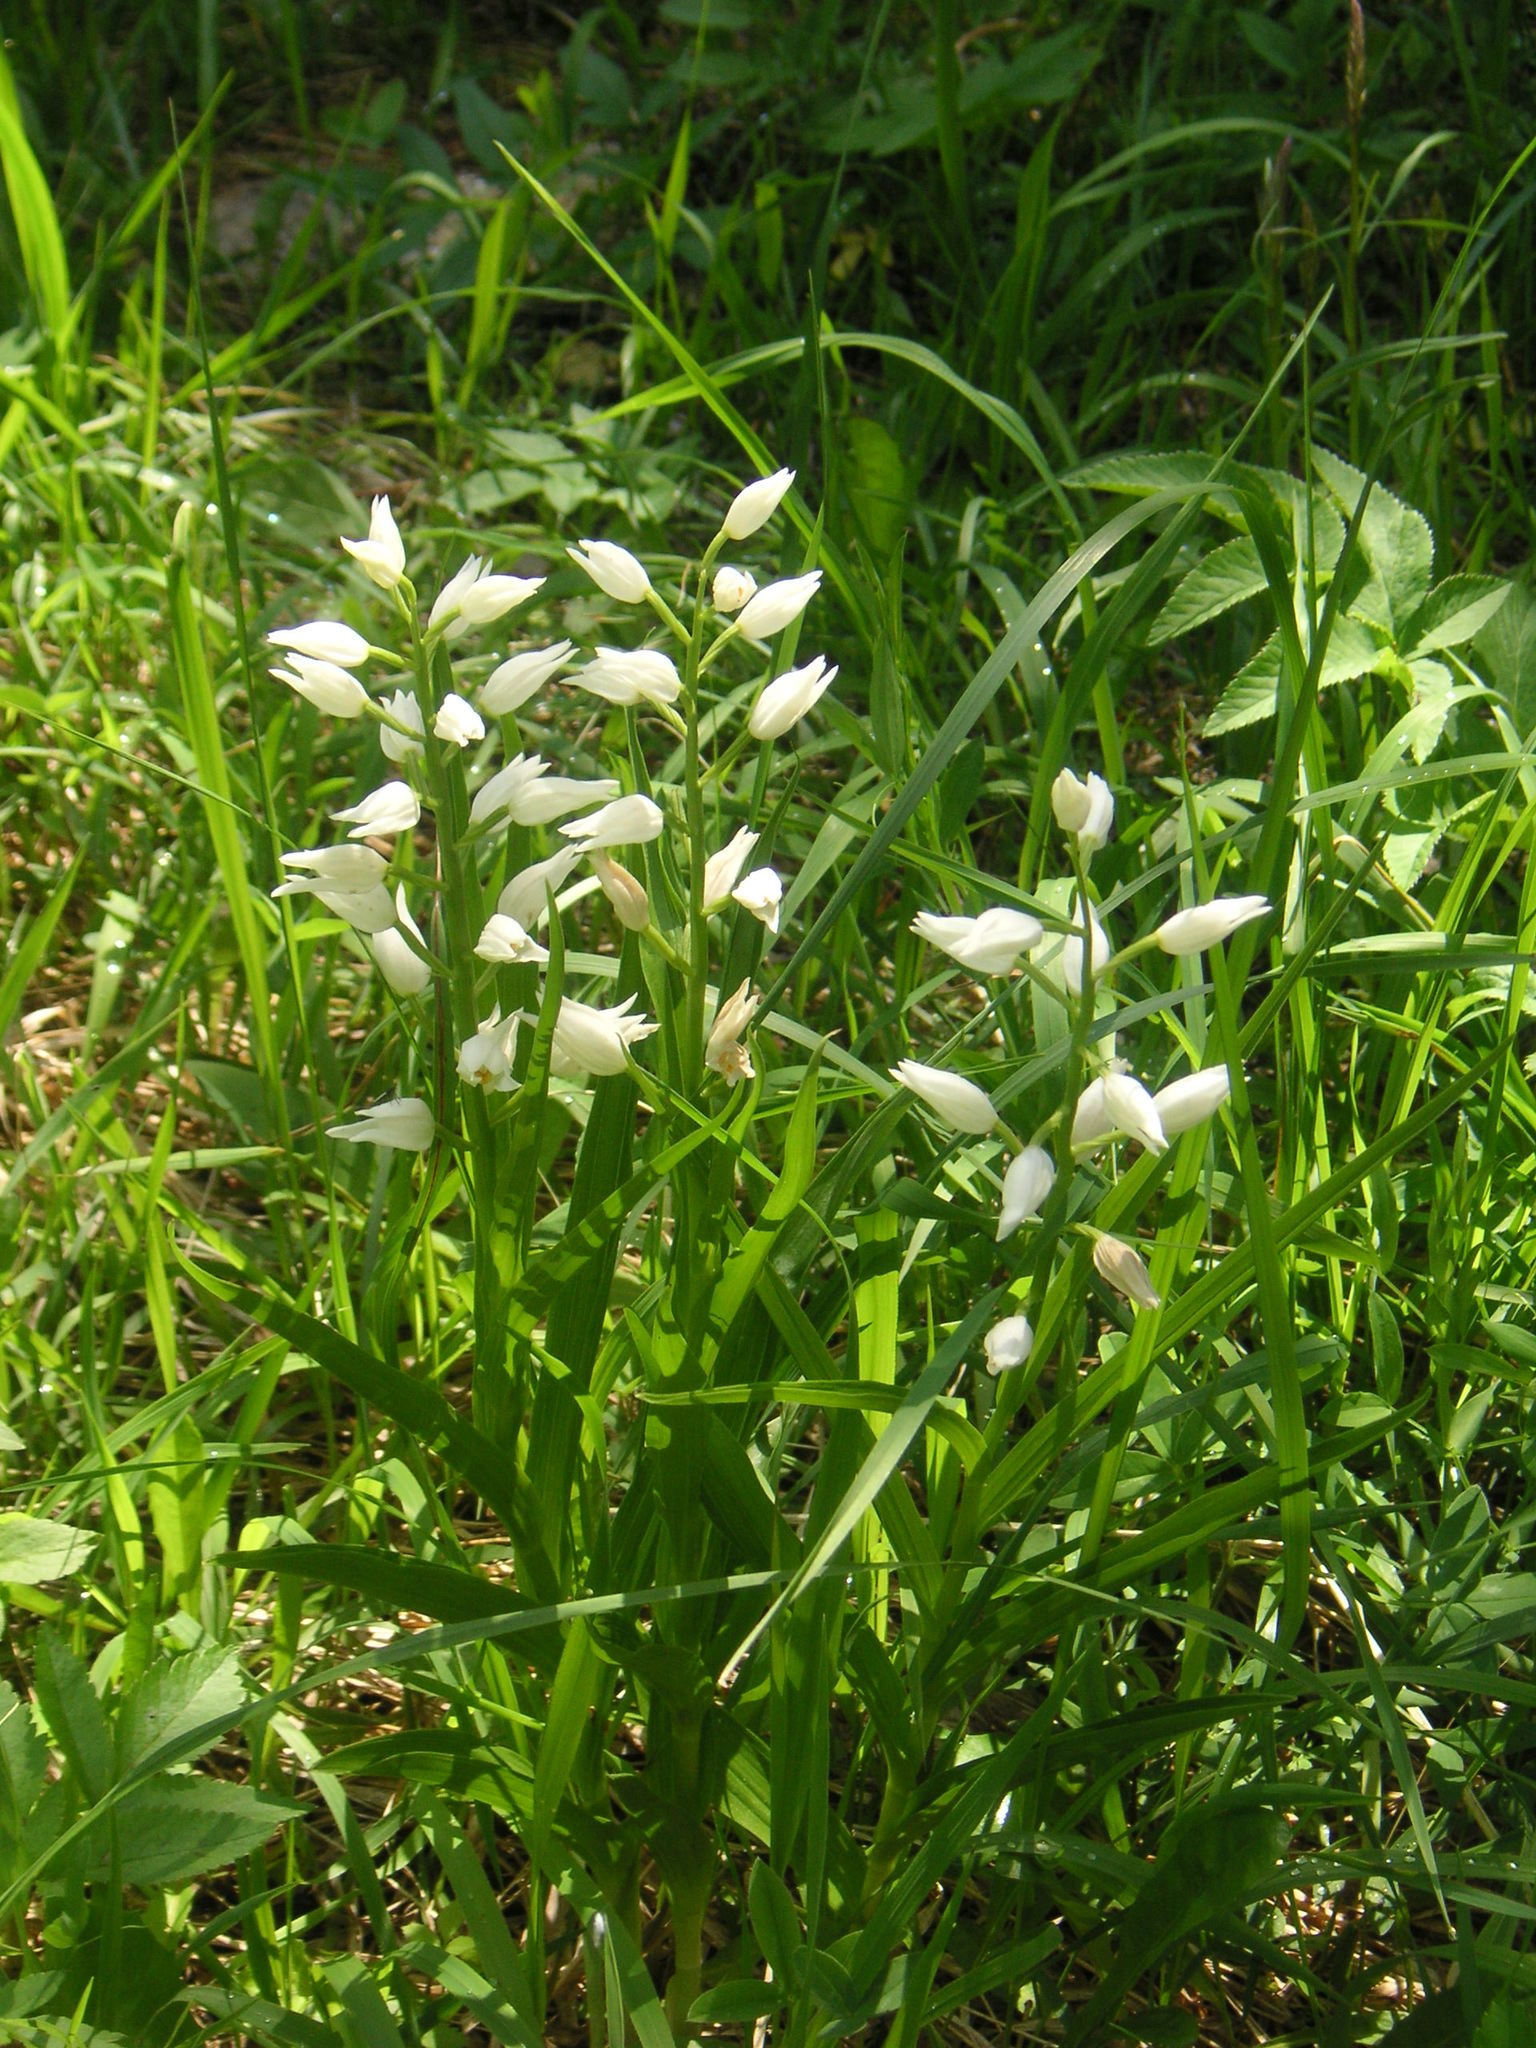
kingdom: Plantae
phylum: Tracheophyta
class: Liliopsida
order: Asparagales
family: Orchidaceae
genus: Cephalanthera
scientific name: Cephalanthera longifolia
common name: Narrow-leaved helleborine
